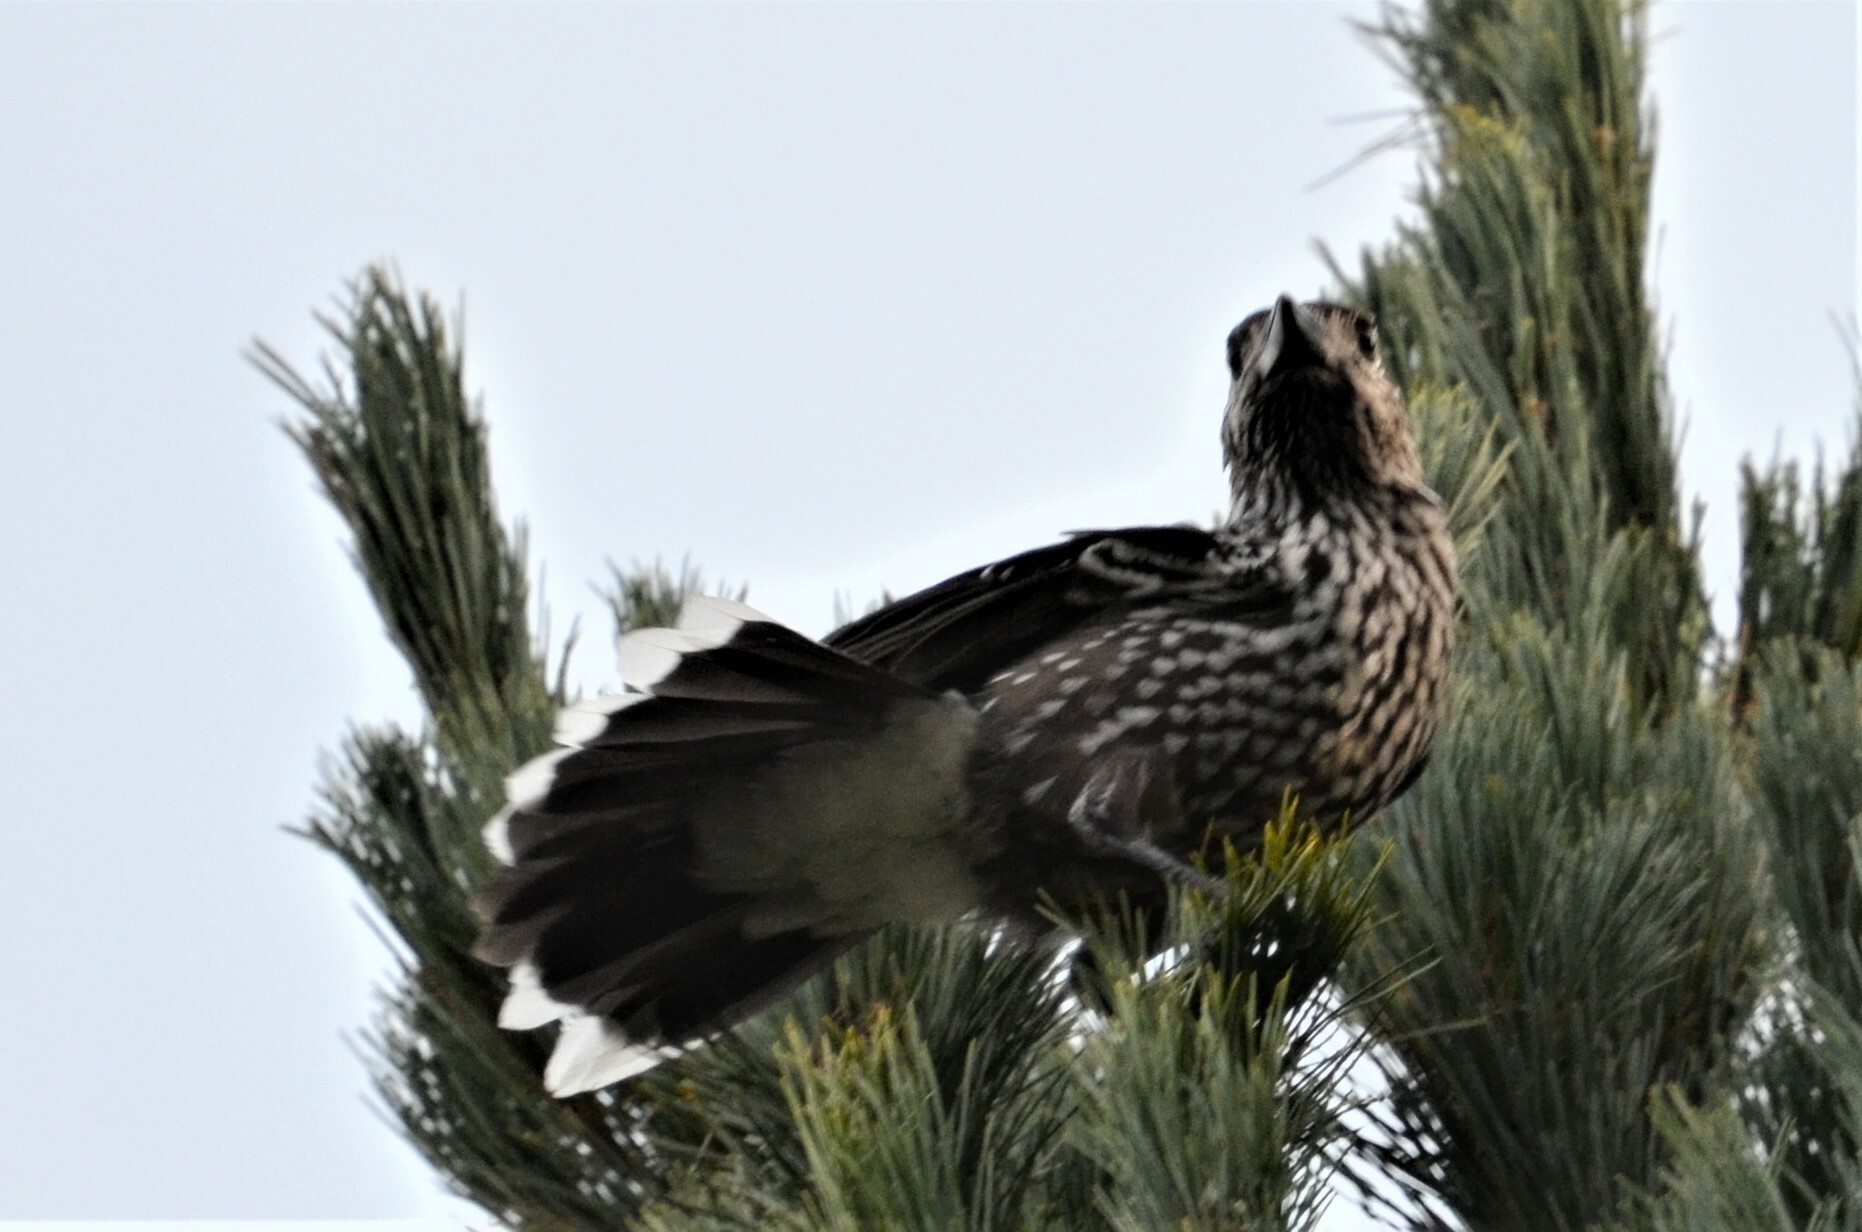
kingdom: Animalia
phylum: Chordata
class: Aves
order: Passeriformes
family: Corvidae
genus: Nucifraga
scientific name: Nucifraga caryocatactes
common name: Spotted nutcracker
